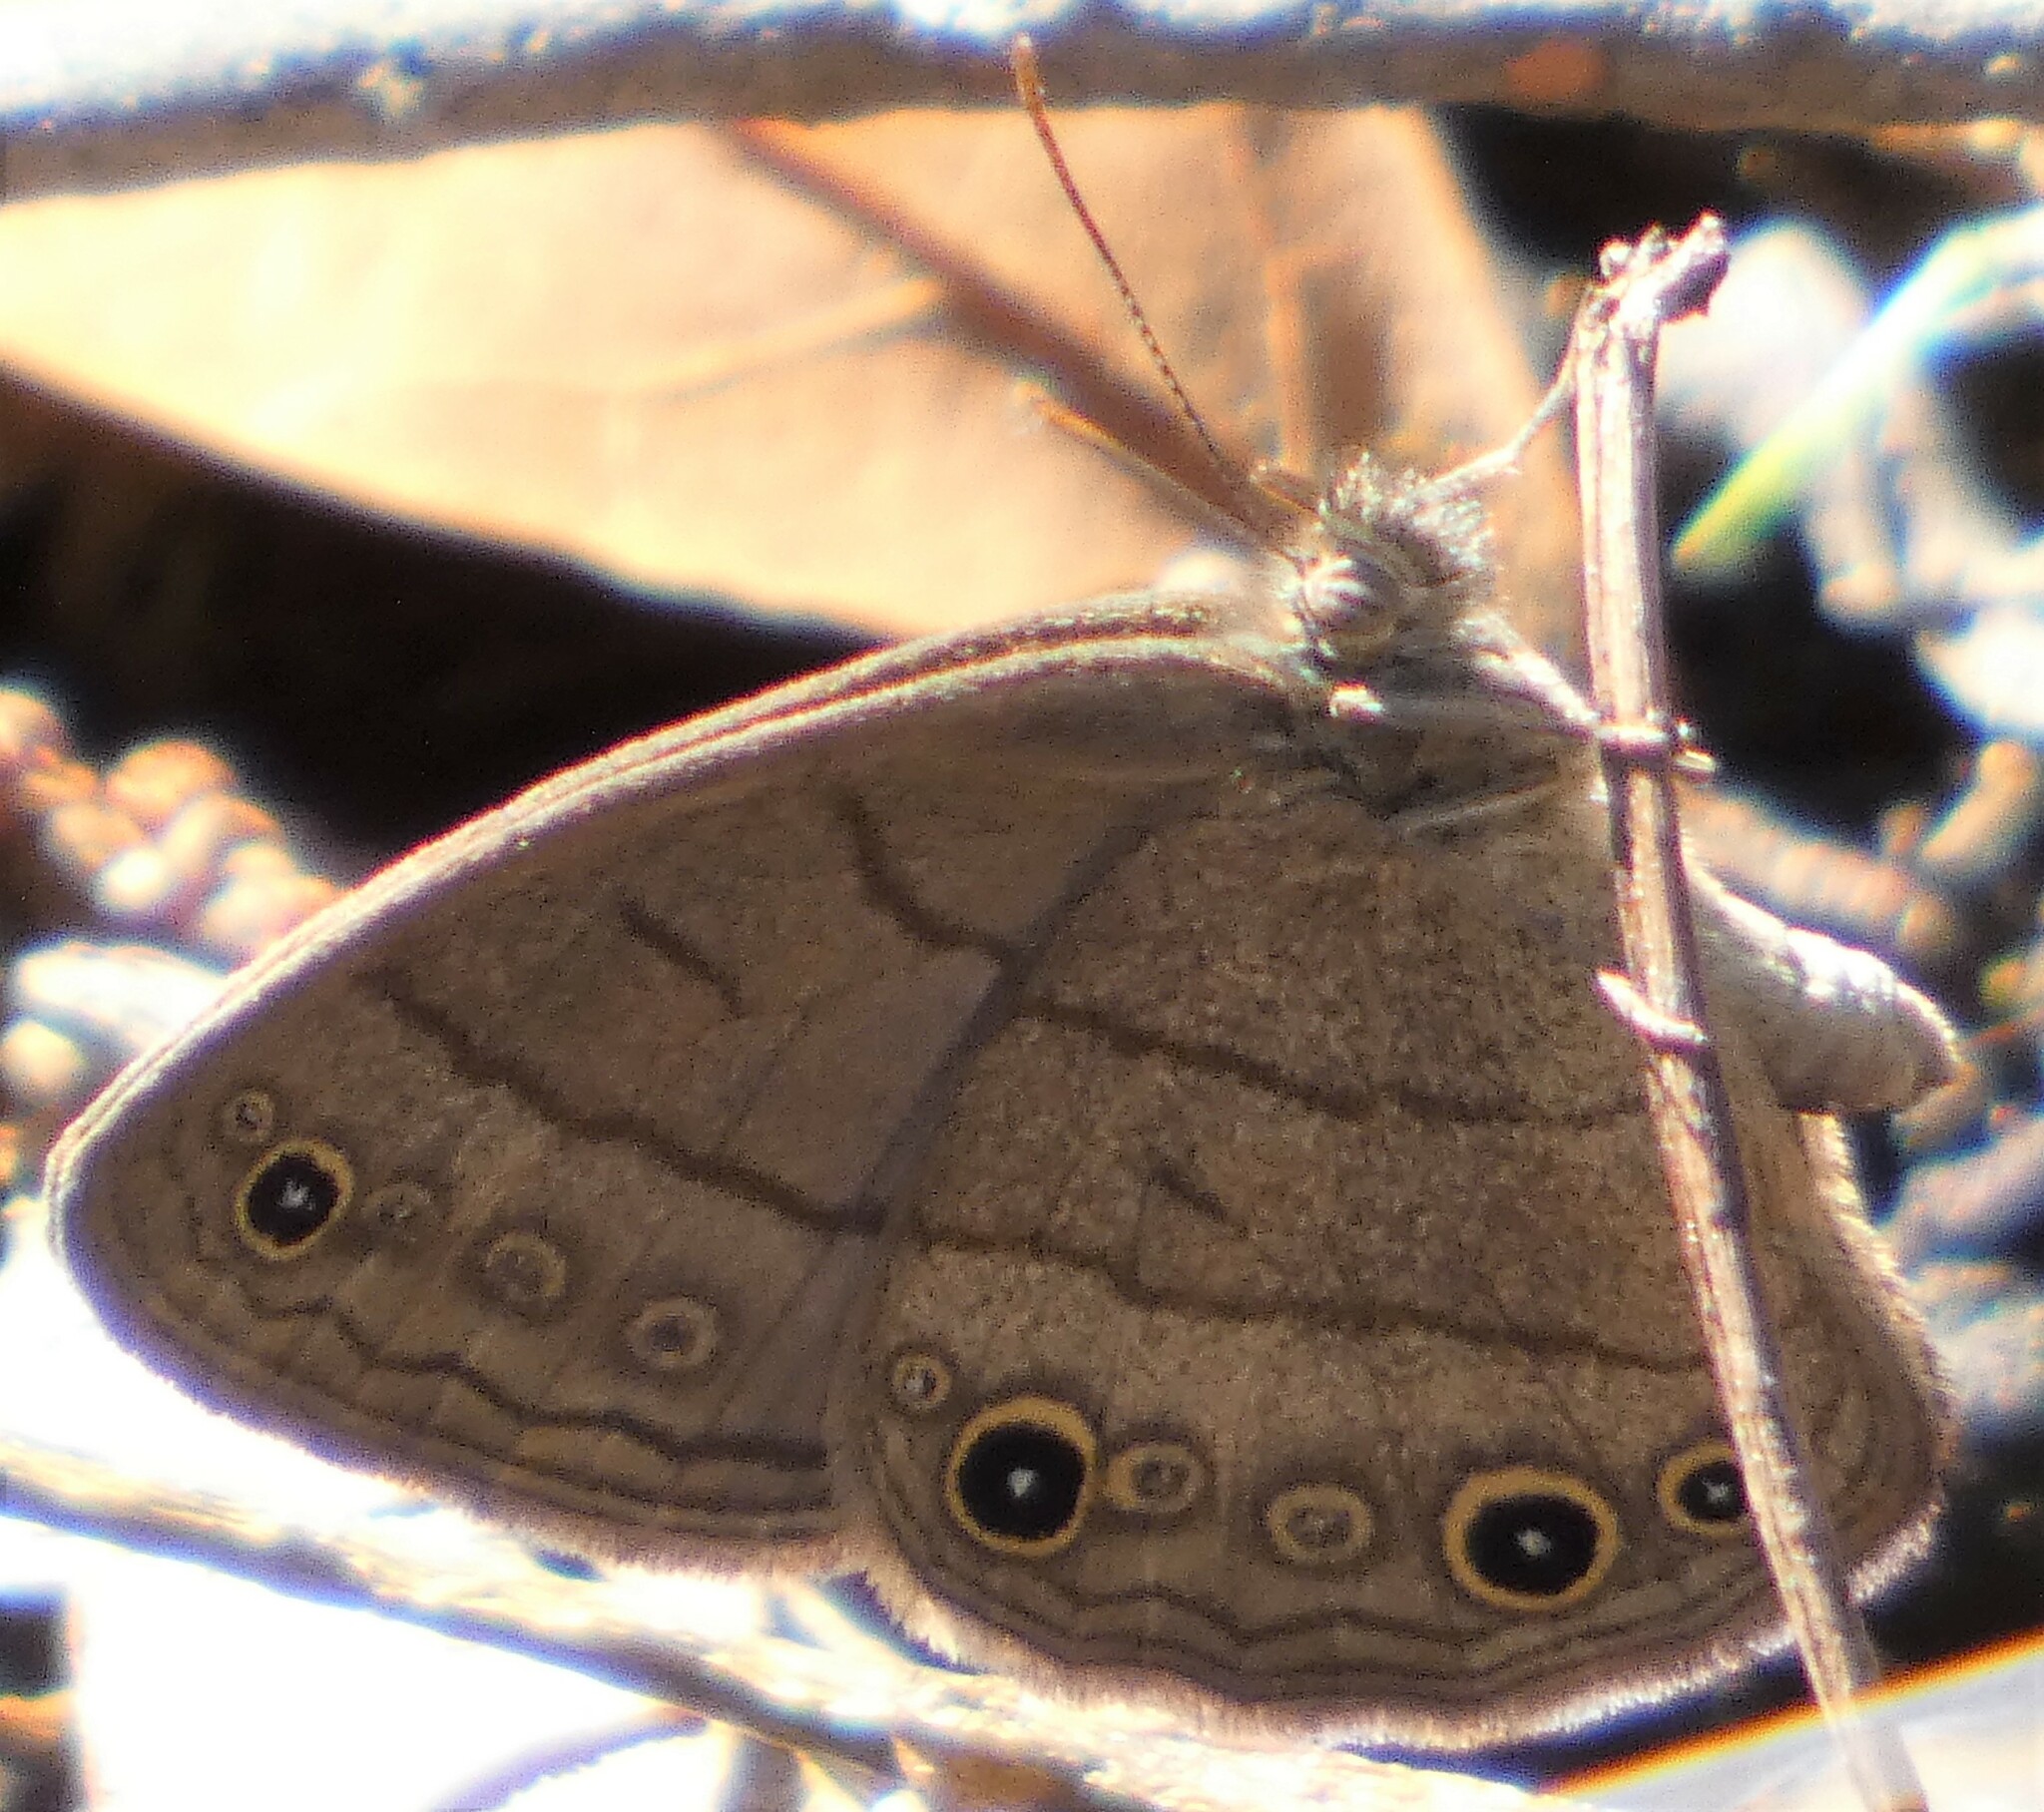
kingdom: Animalia
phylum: Arthropoda
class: Insecta
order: Lepidoptera
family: Nymphalidae
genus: Hermeuptychia
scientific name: Hermeuptychia hermes
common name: Hermes satyr
